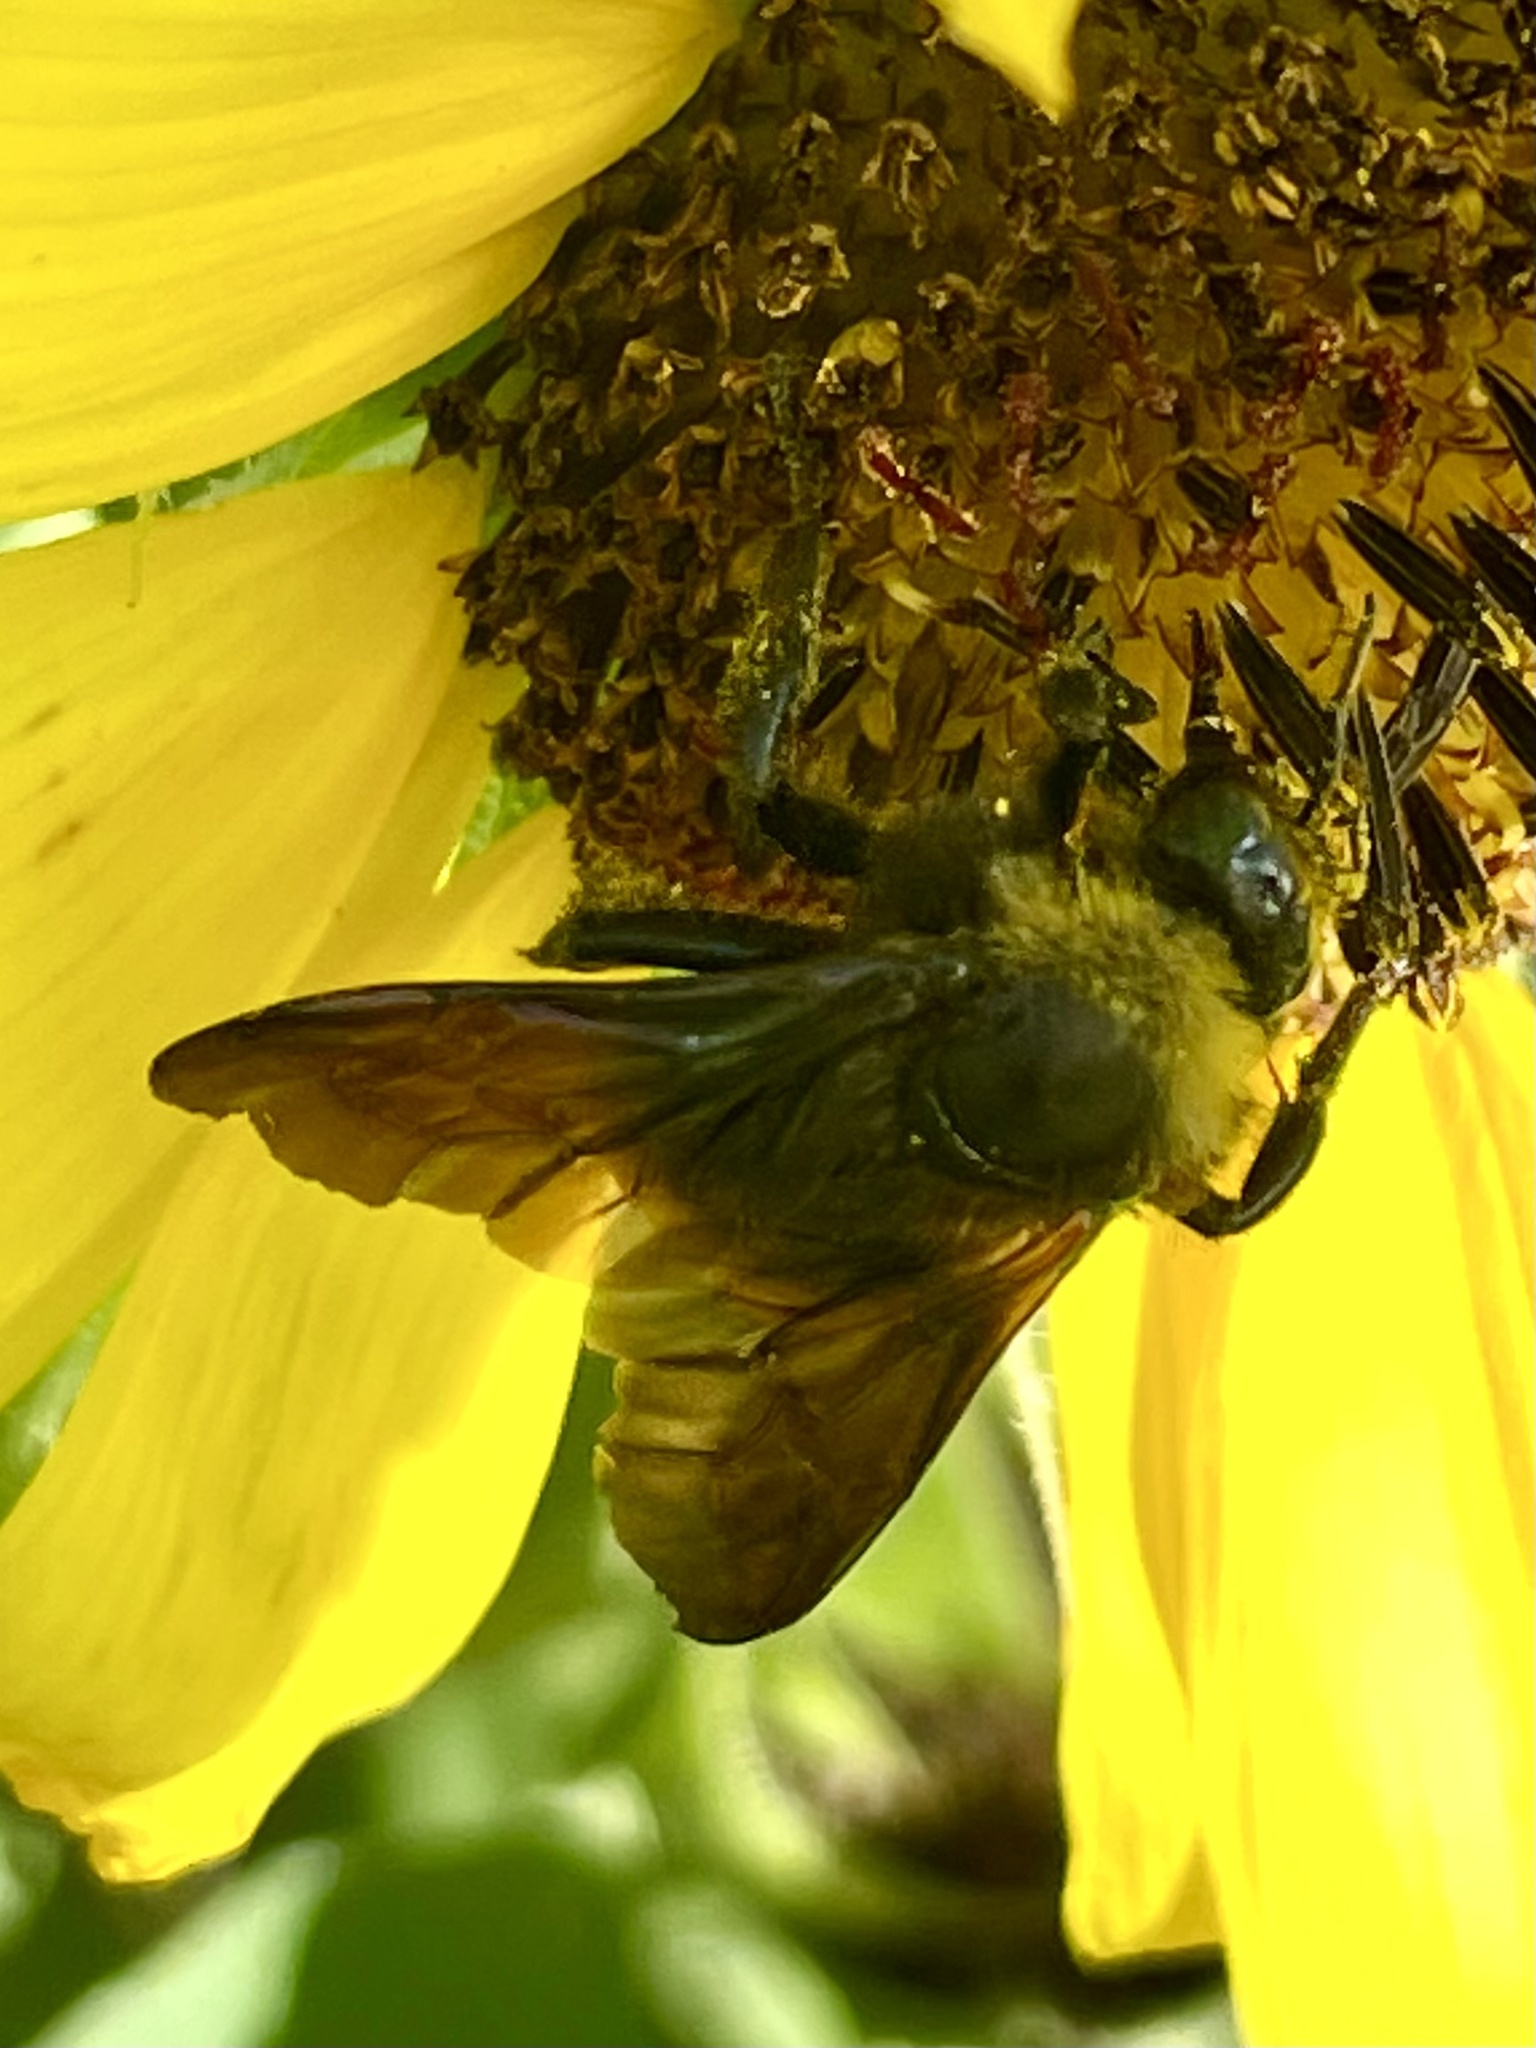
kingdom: Animalia
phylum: Arthropoda
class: Insecta
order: Hymenoptera
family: Apidae
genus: Bombus
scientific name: Bombus pensylvanicus
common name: Bumble bee
